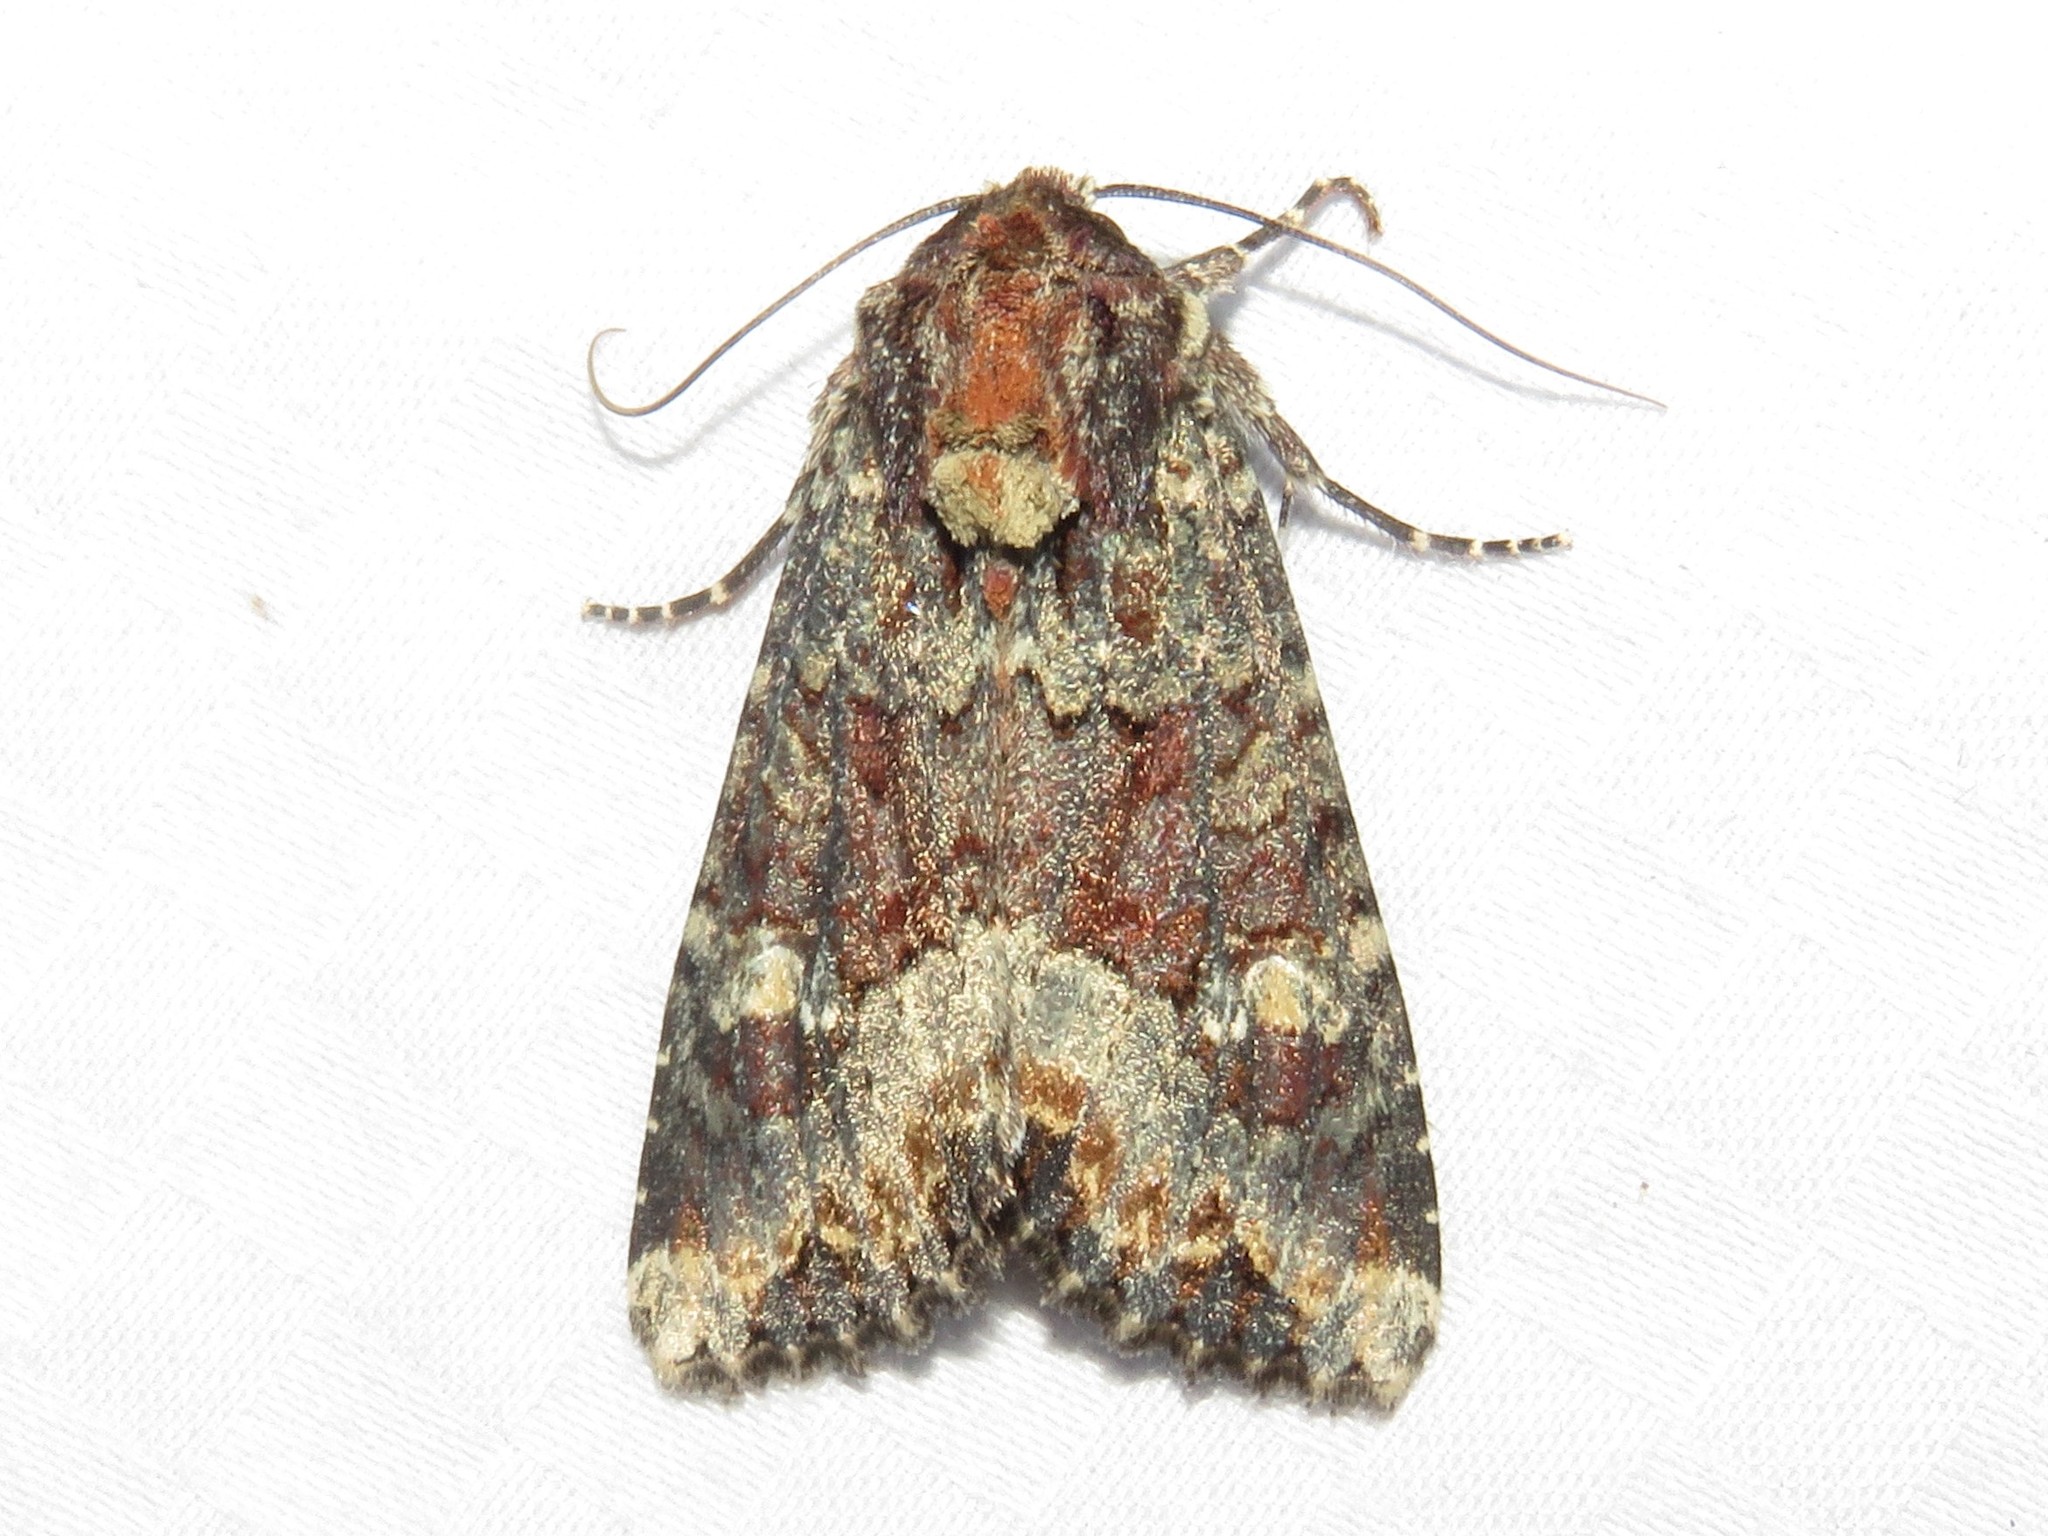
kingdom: Animalia
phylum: Arthropoda
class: Insecta
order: Lepidoptera
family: Noctuidae
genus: Apamea
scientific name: Apamea amputatrix
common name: Yellow-headed cutworm moth
